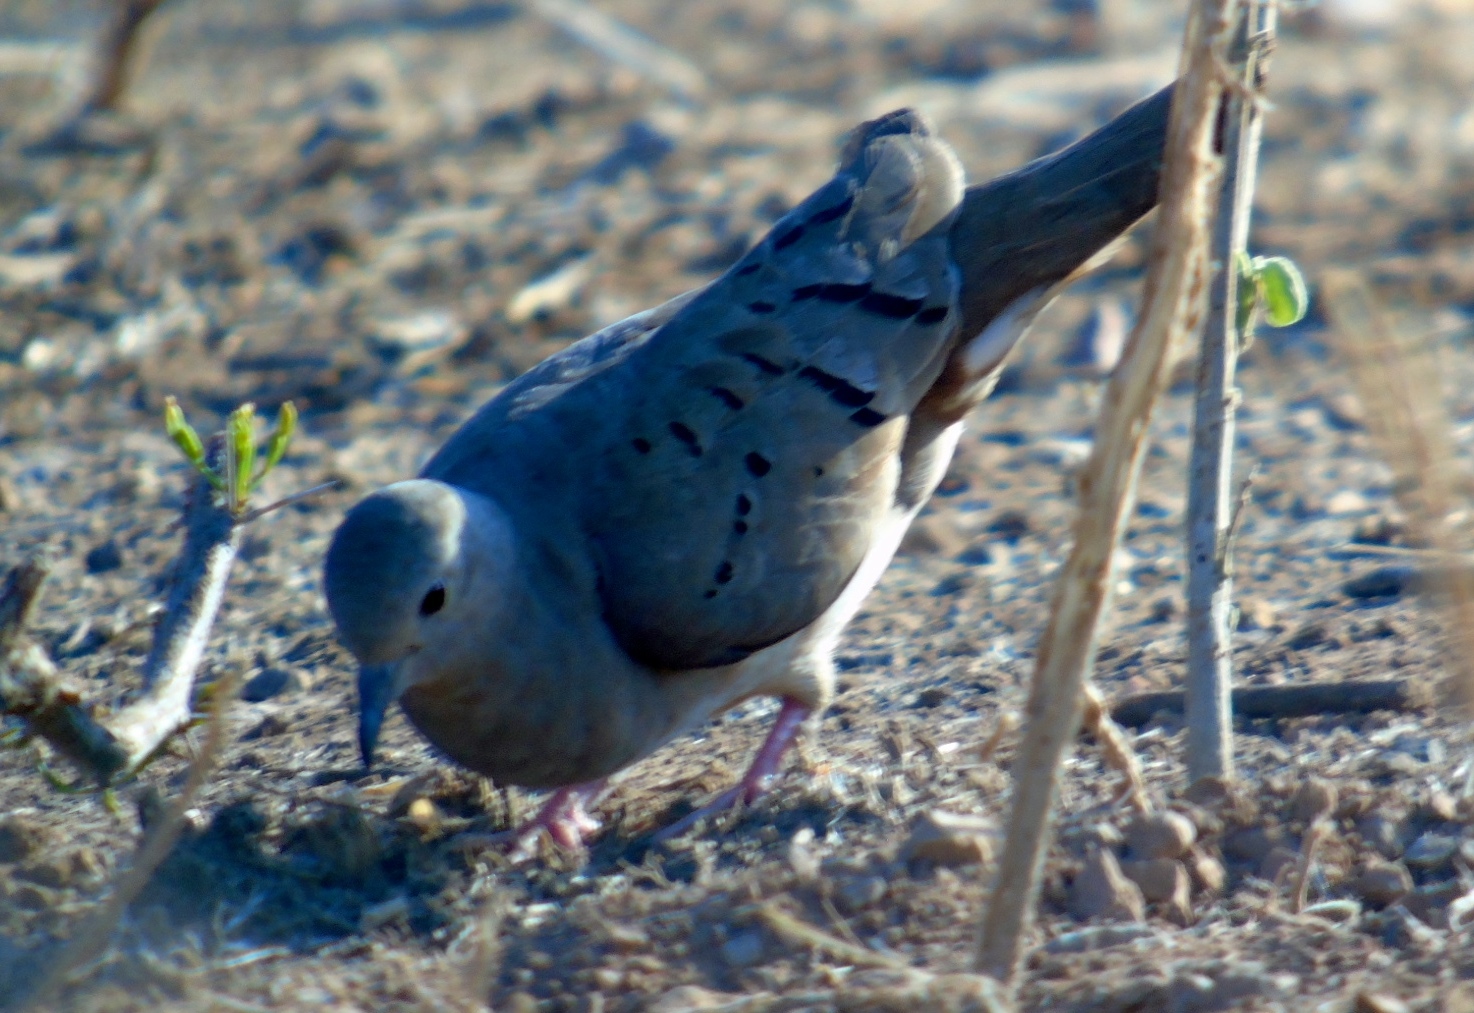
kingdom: Animalia
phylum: Chordata
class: Aves
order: Columbiformes
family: Columbidae
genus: Columbina
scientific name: Columbina talpacoti
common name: Ruddy ground dove
